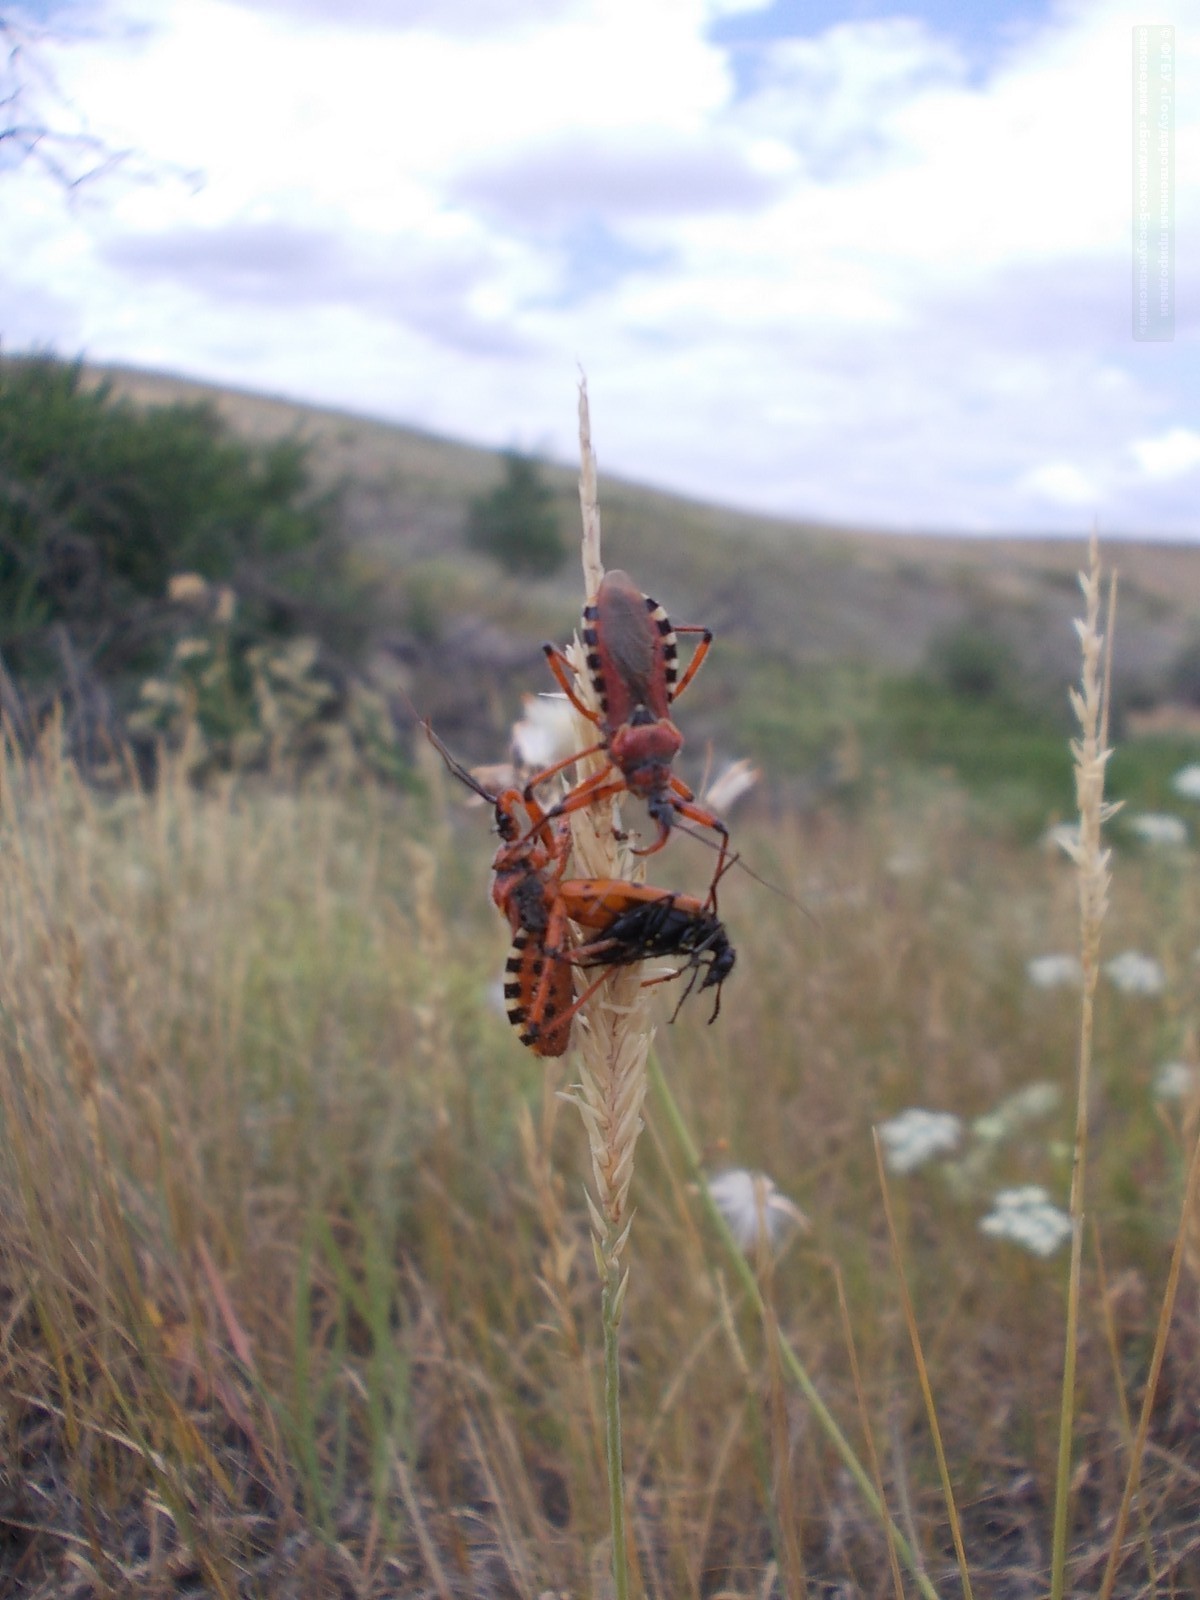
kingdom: Animalia
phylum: Arthropoda
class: Insecta
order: Hemiptera
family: Reduviidae
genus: Rhynocoris
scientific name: Rhynocoris iracundus
